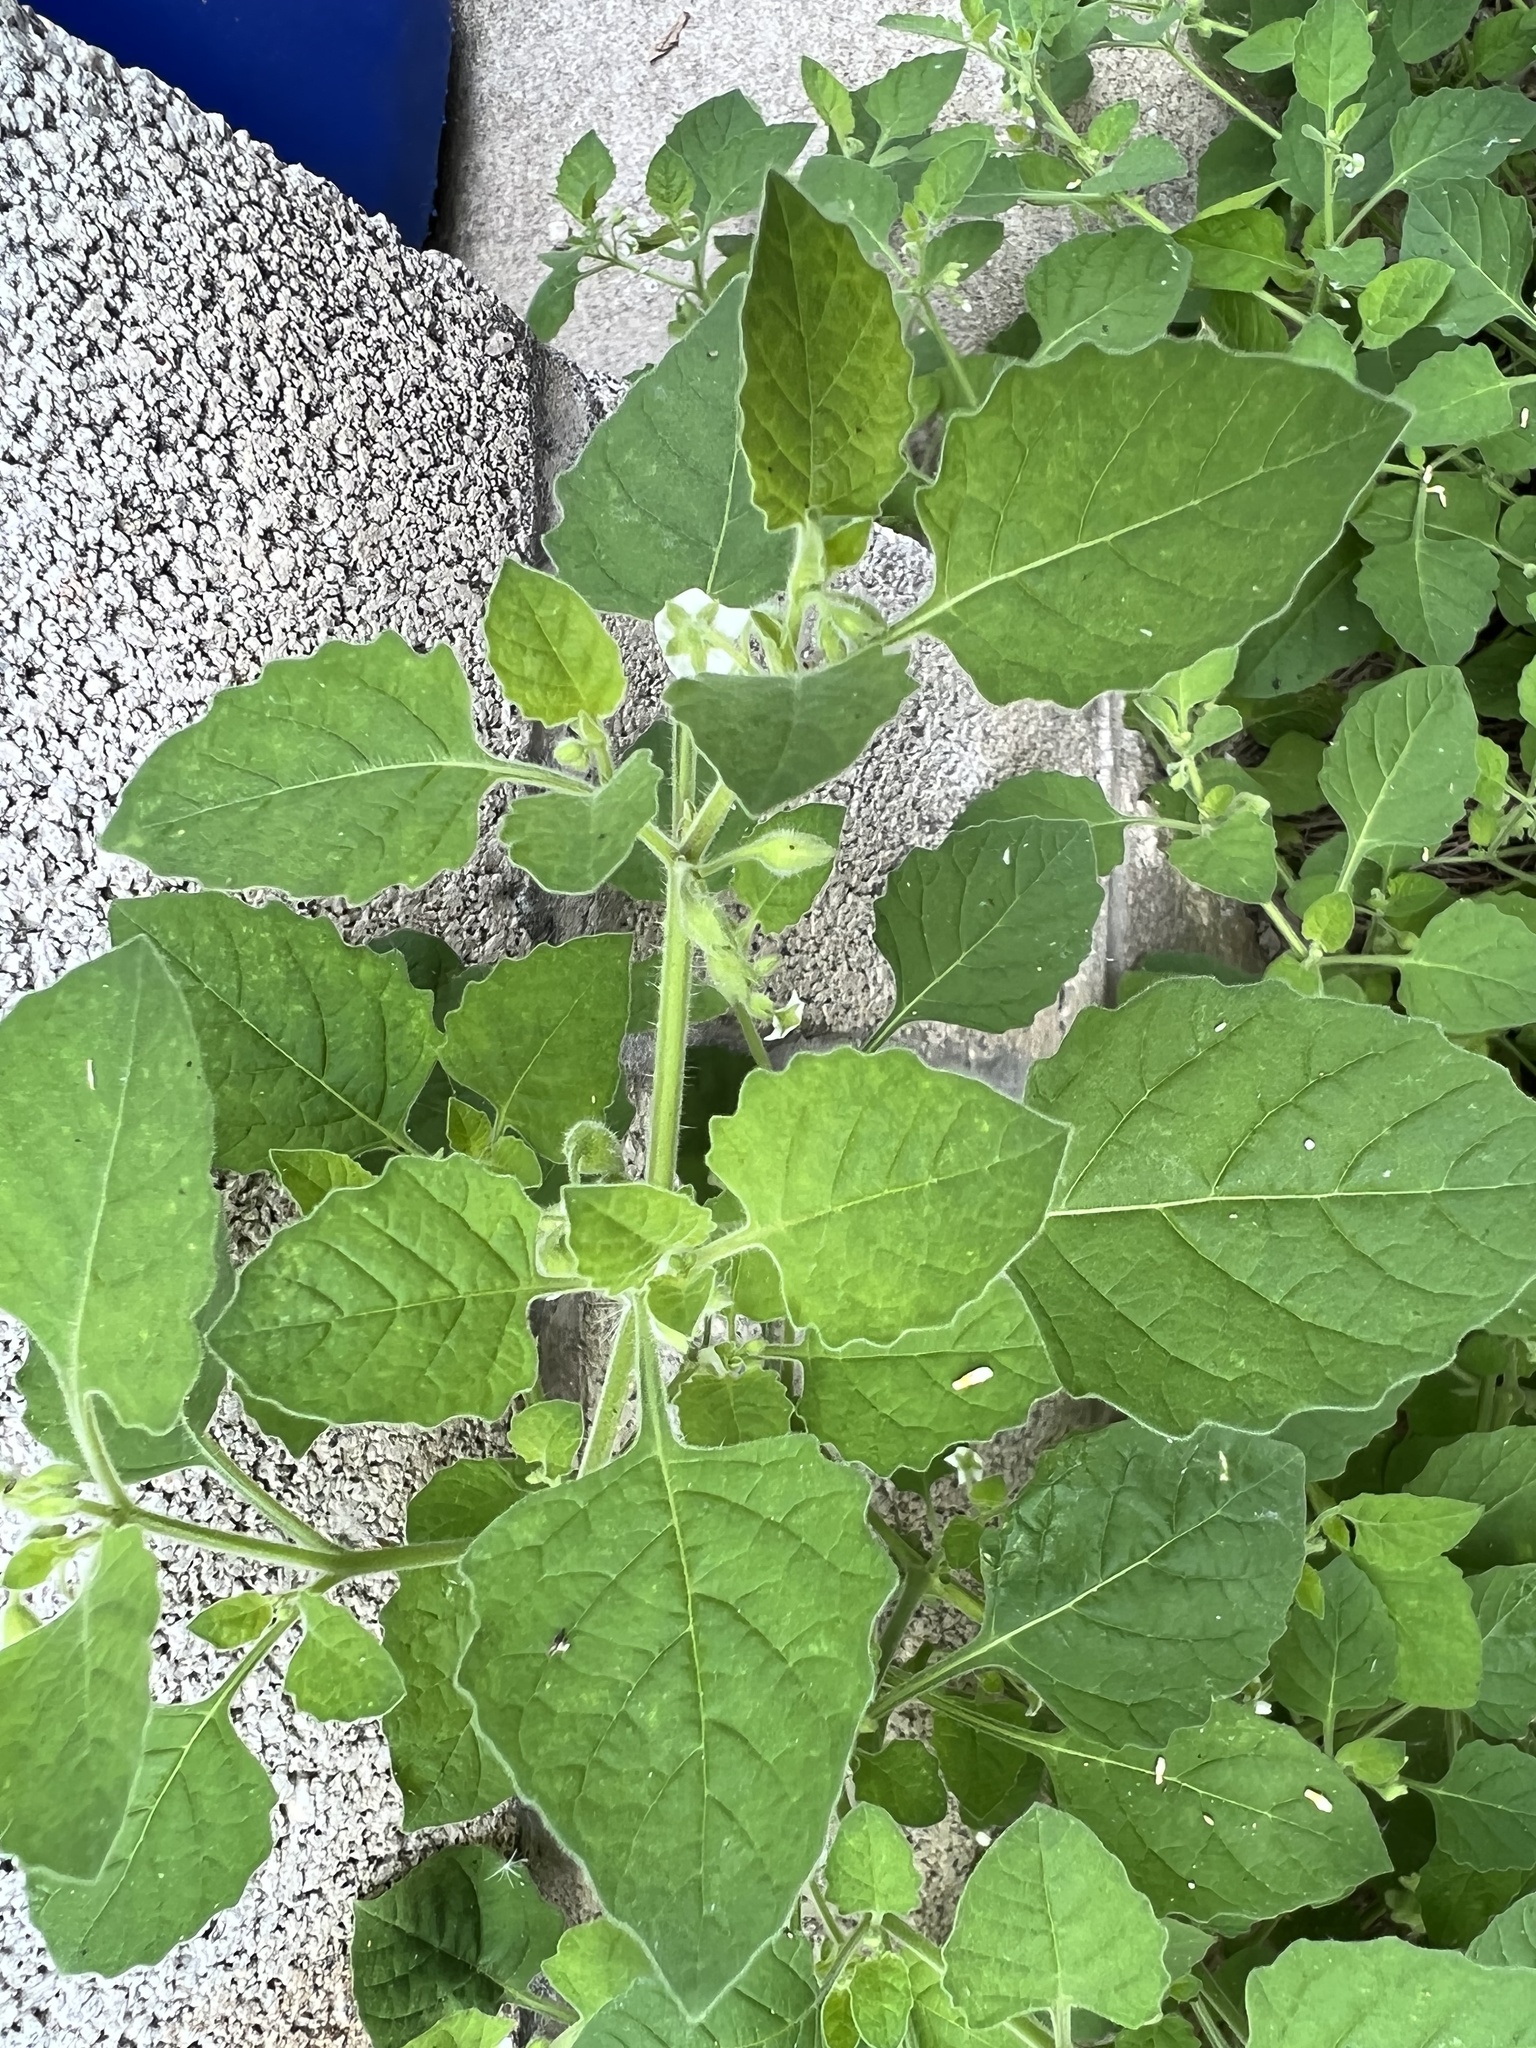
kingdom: Plantae
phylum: Tracheophyta
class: Magnoliopsida
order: Solanales
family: Solanaceae
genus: Solanum
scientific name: Solanum sarrachoides
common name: Leafy-fruited nightshade
